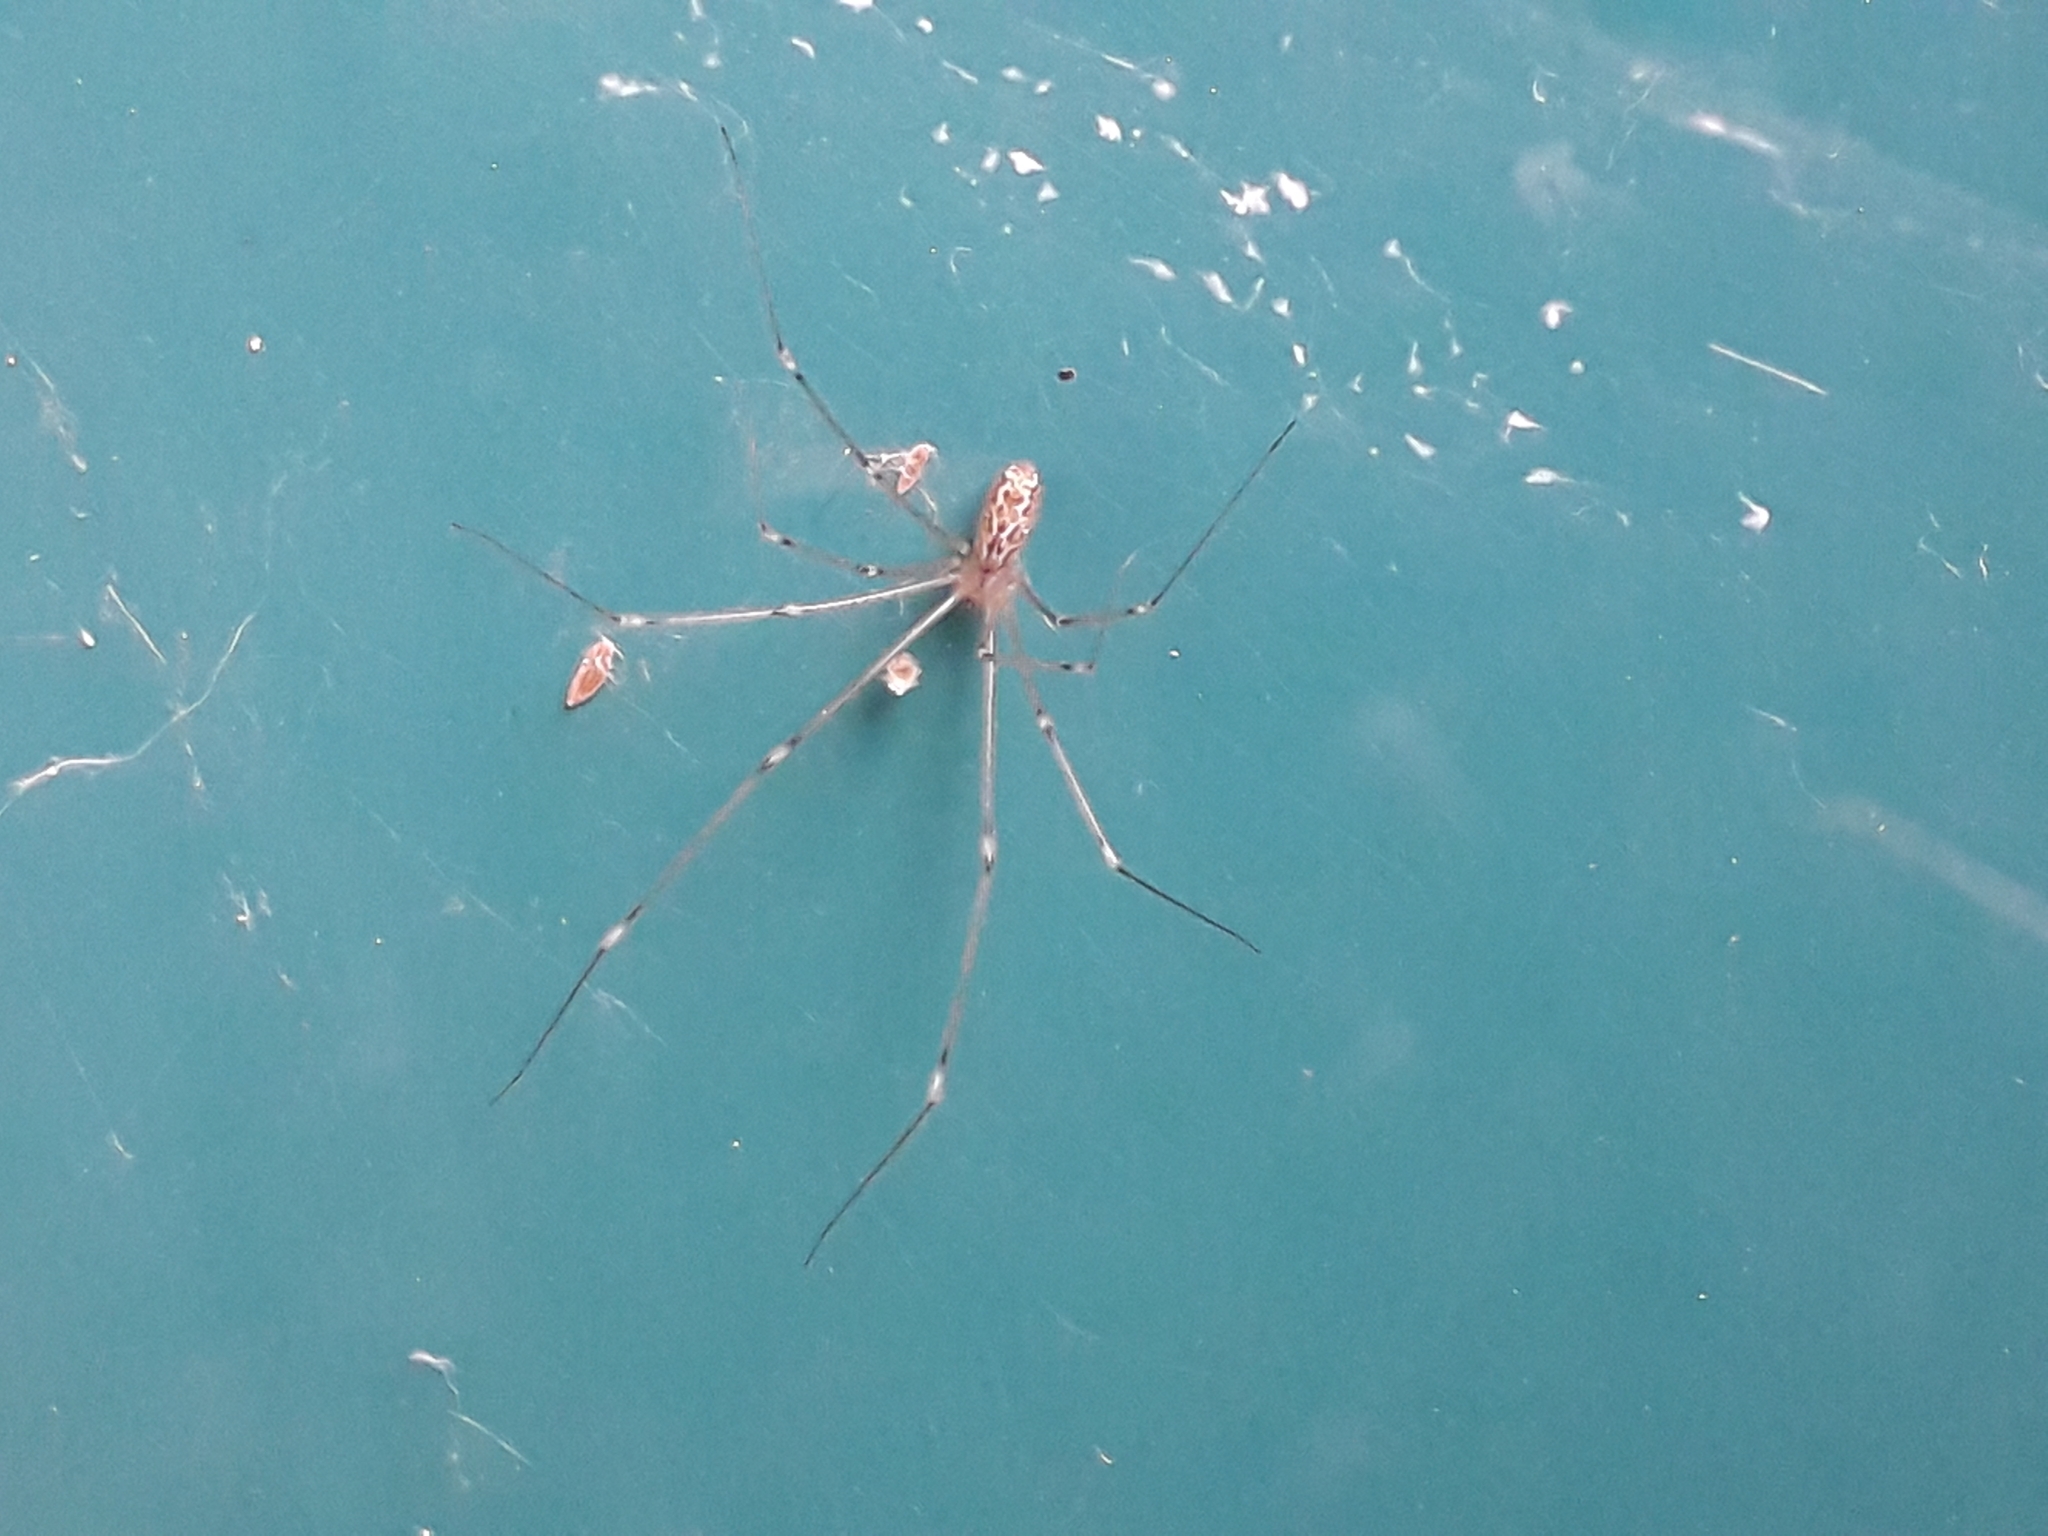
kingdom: Animalia
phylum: Arthropoda
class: Arachnida
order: Araneae
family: Pholcidae
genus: Holocnemus
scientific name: Holocnemus pluchei
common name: Marbled cellar spider
